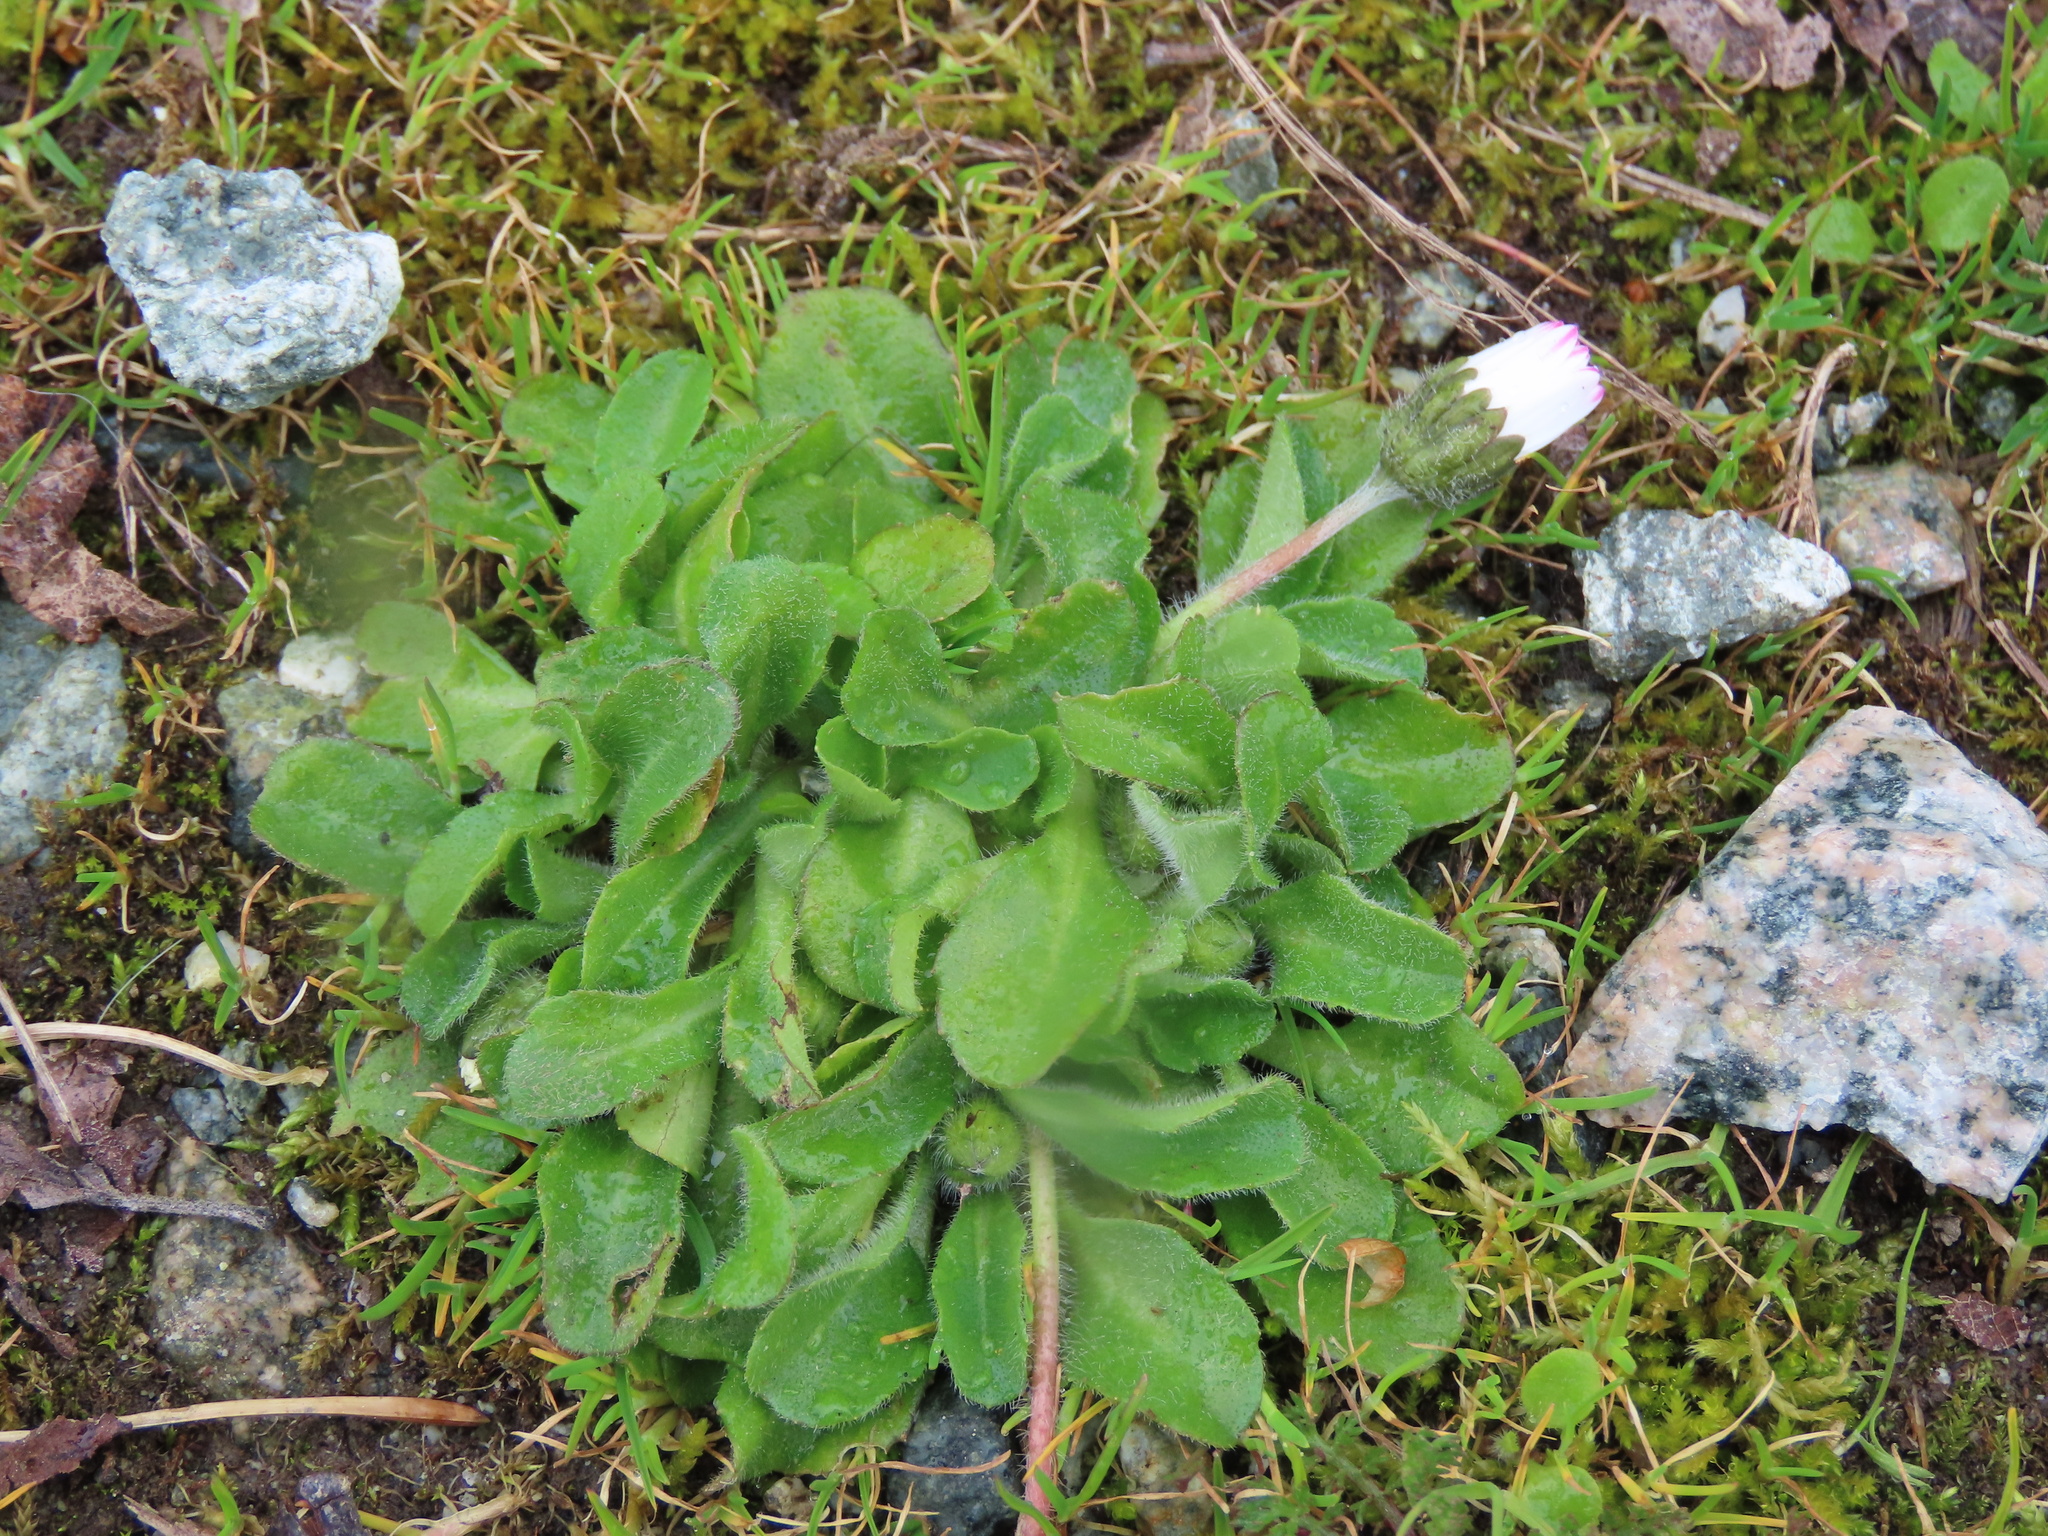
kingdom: Plantae
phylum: Tracheophyta
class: Magnoliopsida
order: Asterales
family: Asteraceae
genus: Bellis
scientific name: Bellis perennis
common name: Lawndaisy
